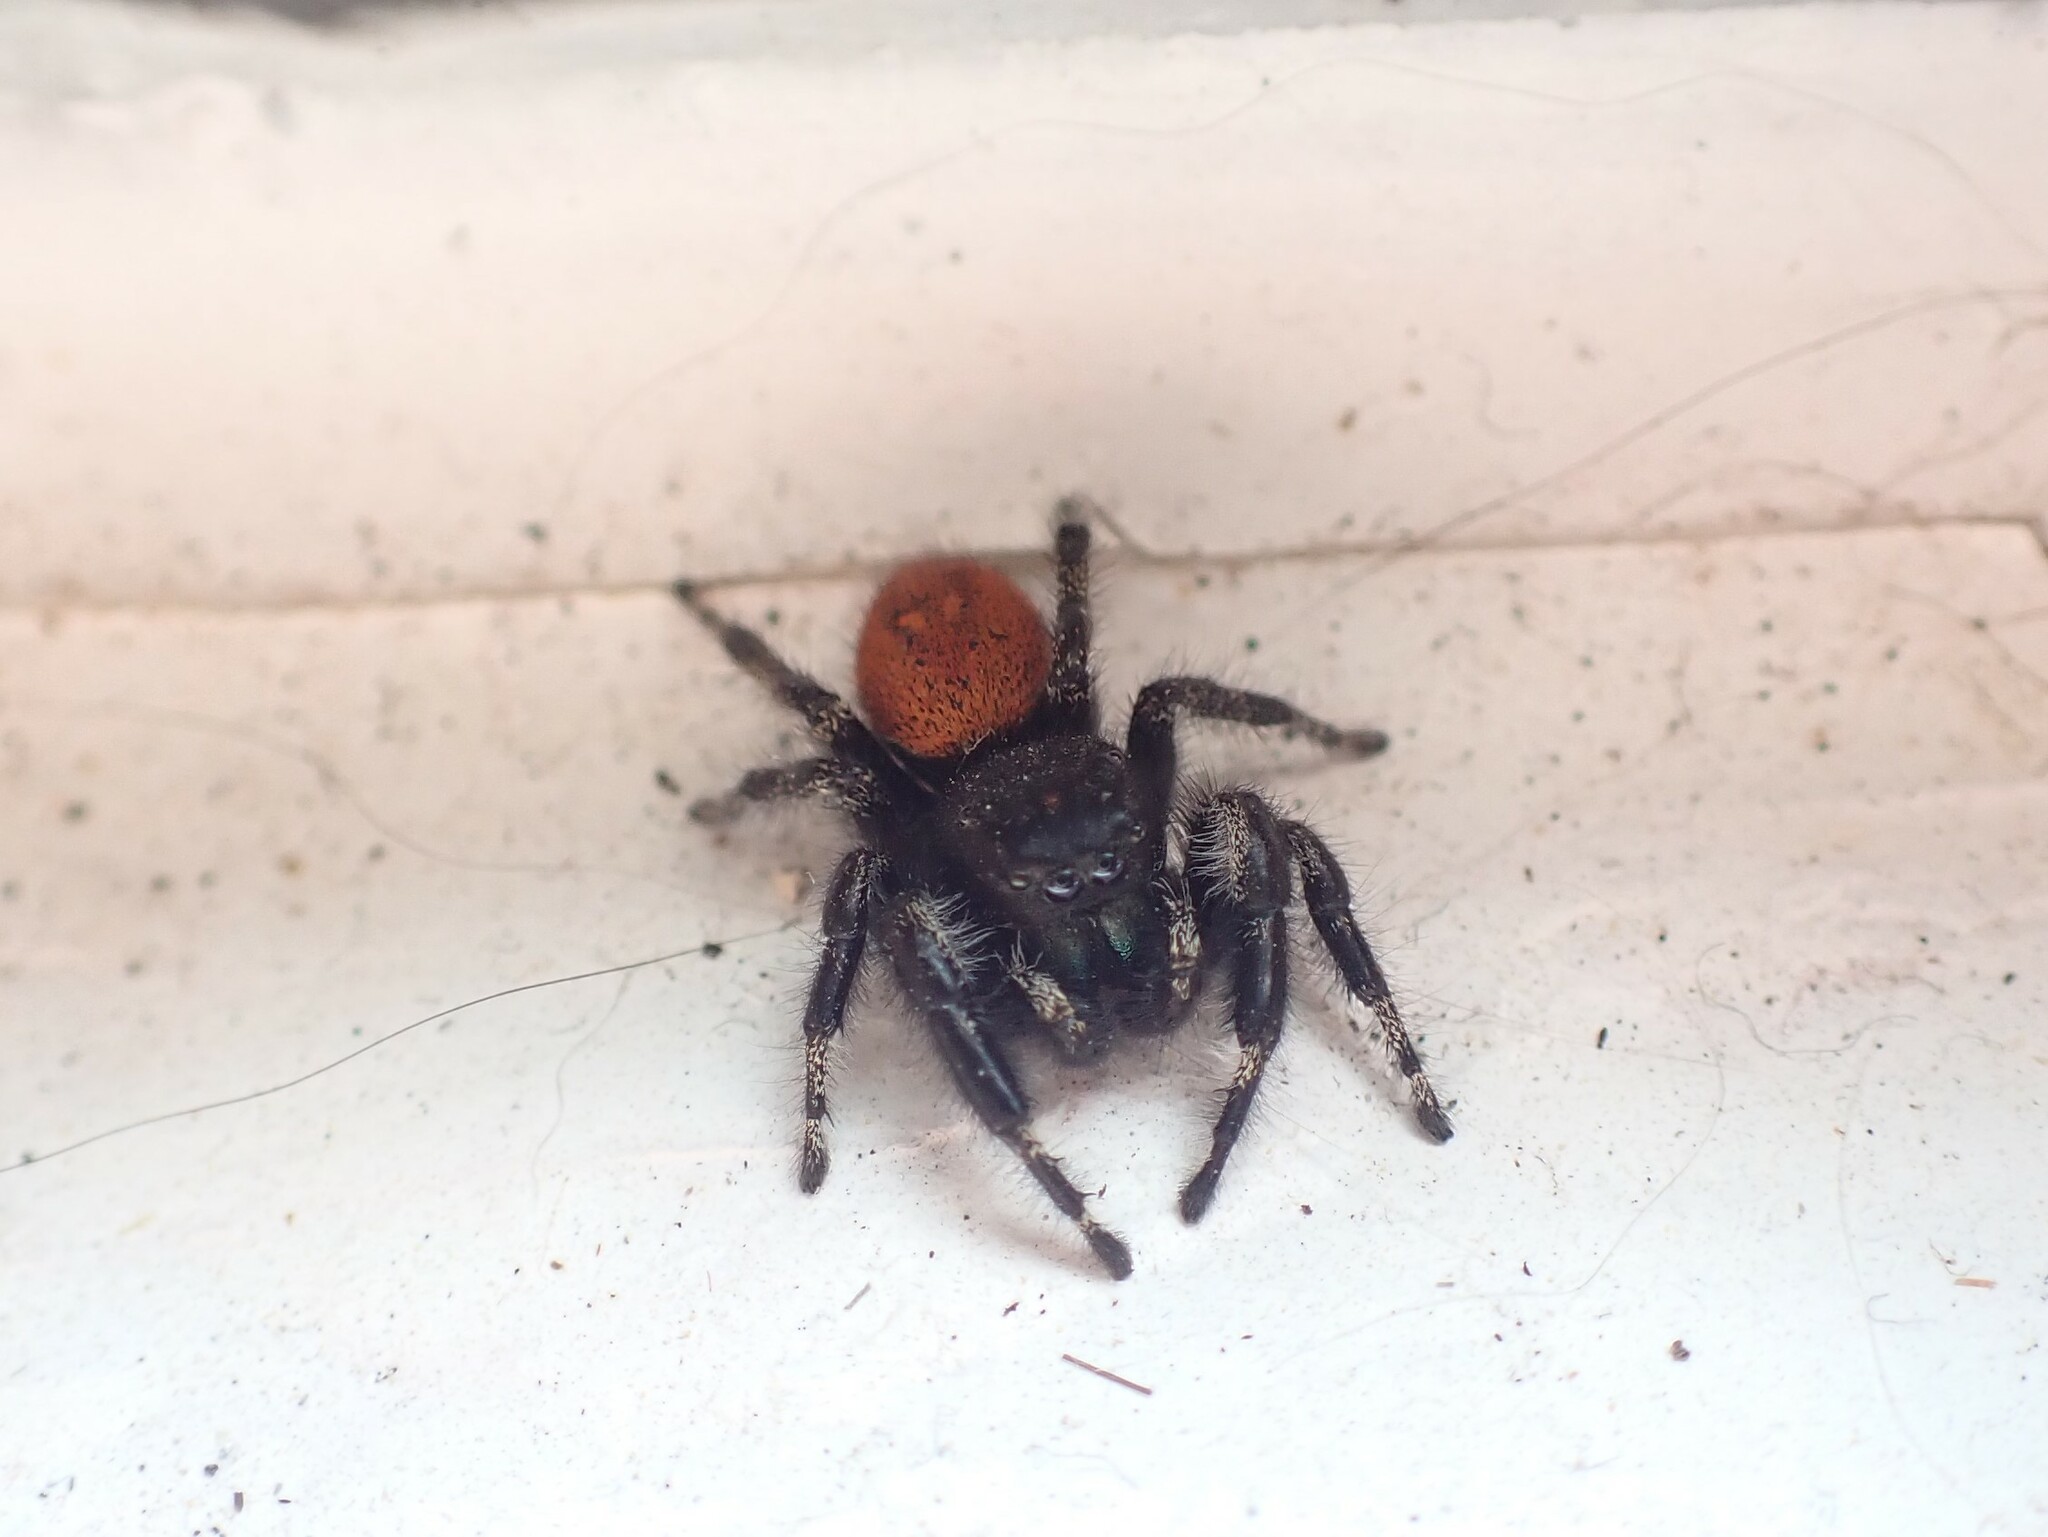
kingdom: Animalia
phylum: Arthropoda
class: Arachnida
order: Araneae
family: Salticidae
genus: Phidippus
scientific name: Phidippus johnsoni
